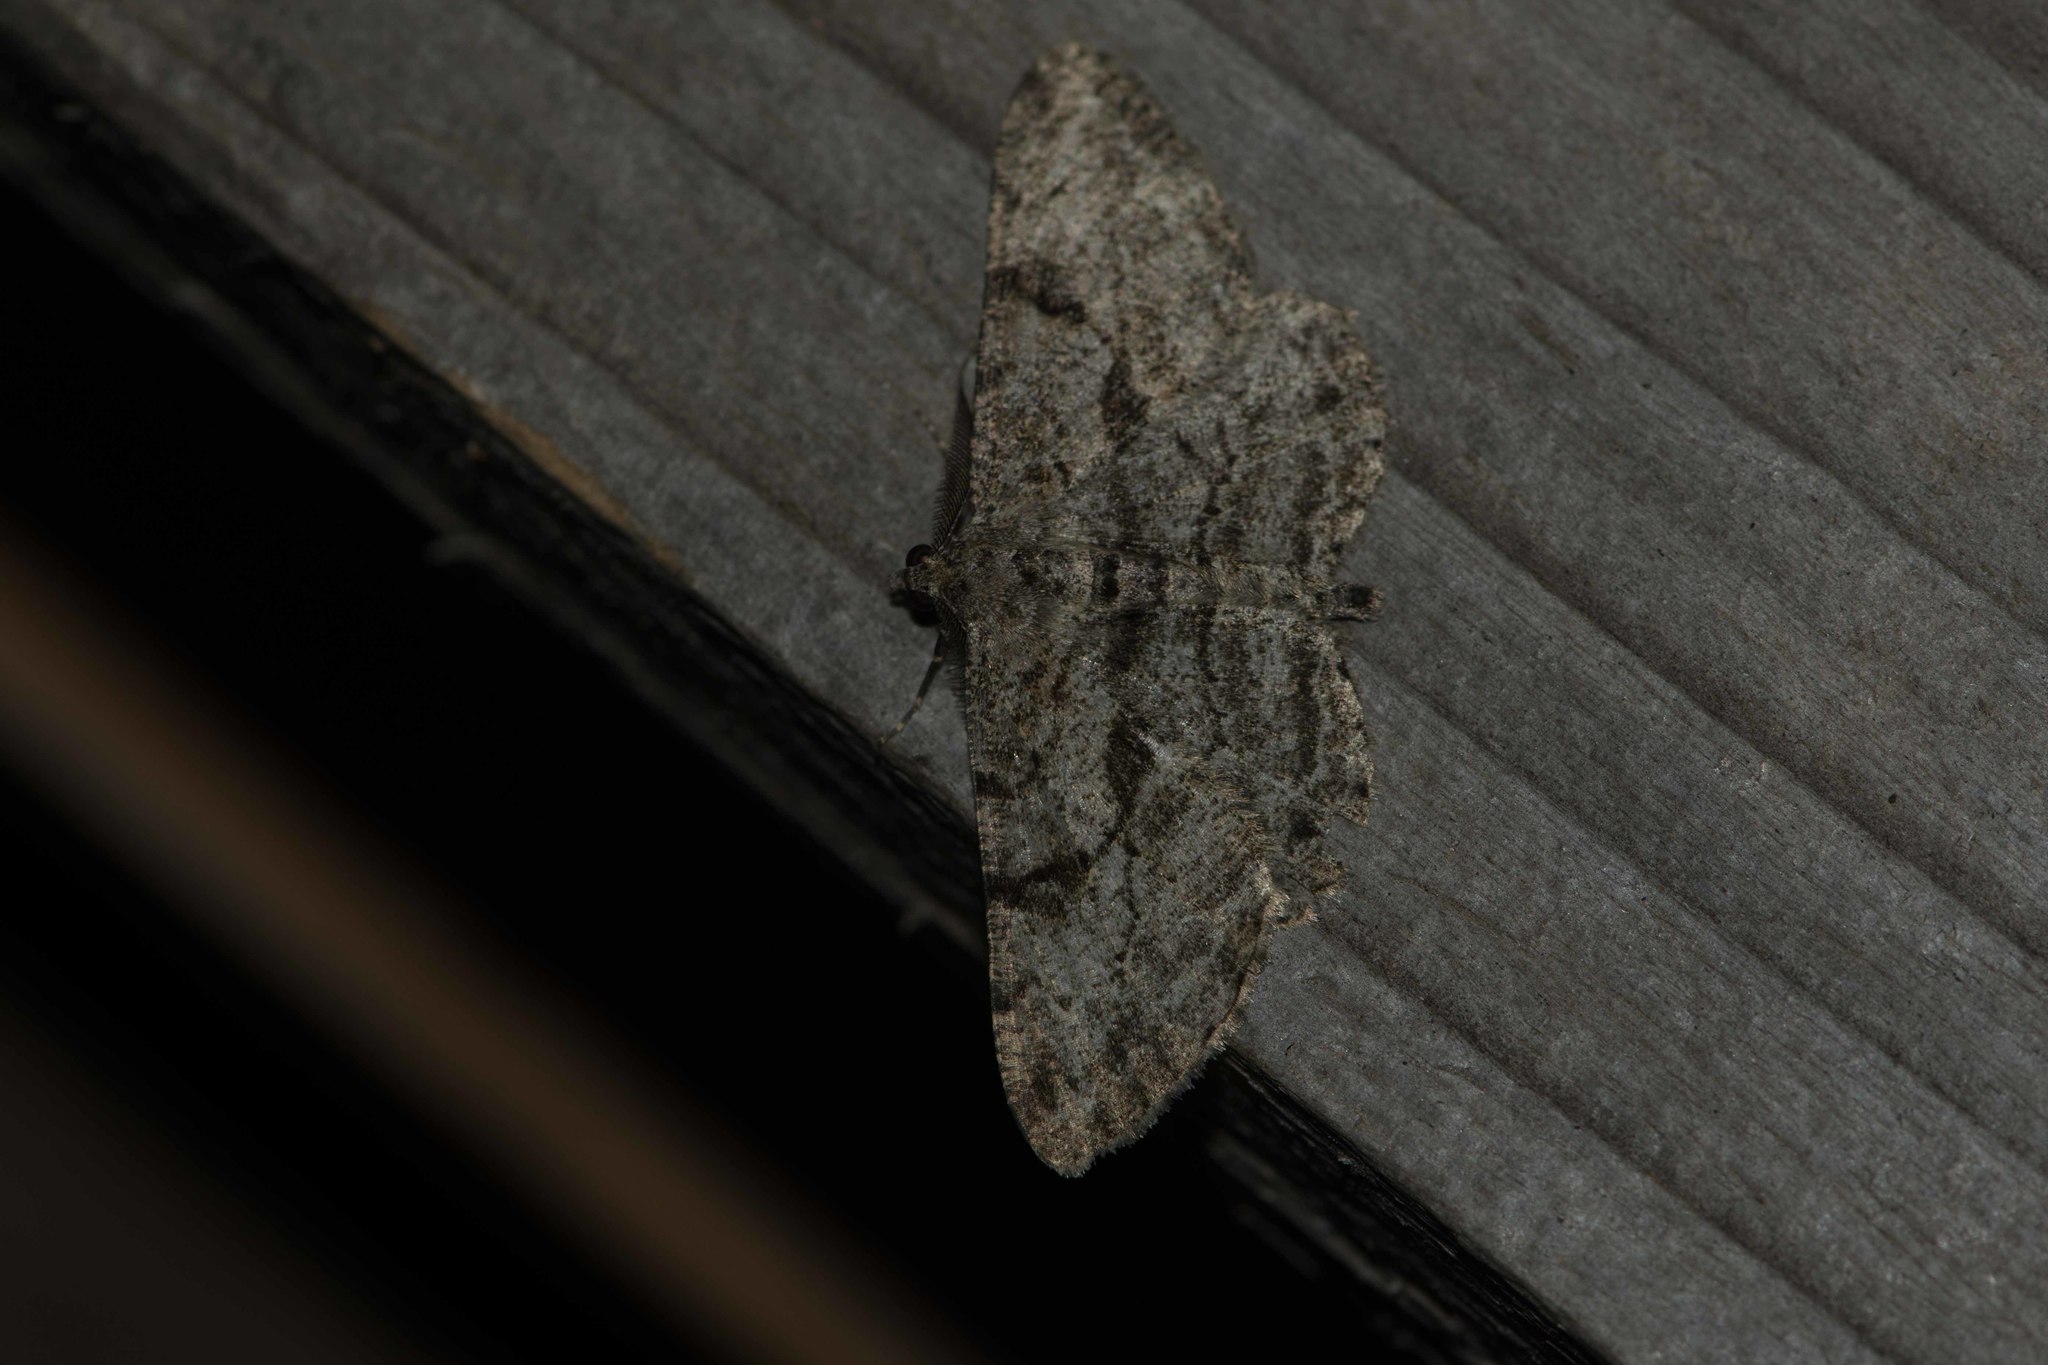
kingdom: Animalia
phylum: Arthropoda
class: Insecta
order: Lepidoptera
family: Geometridae
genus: Peribatodes
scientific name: Peribatodes rhomboidaria
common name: Willow beauty
